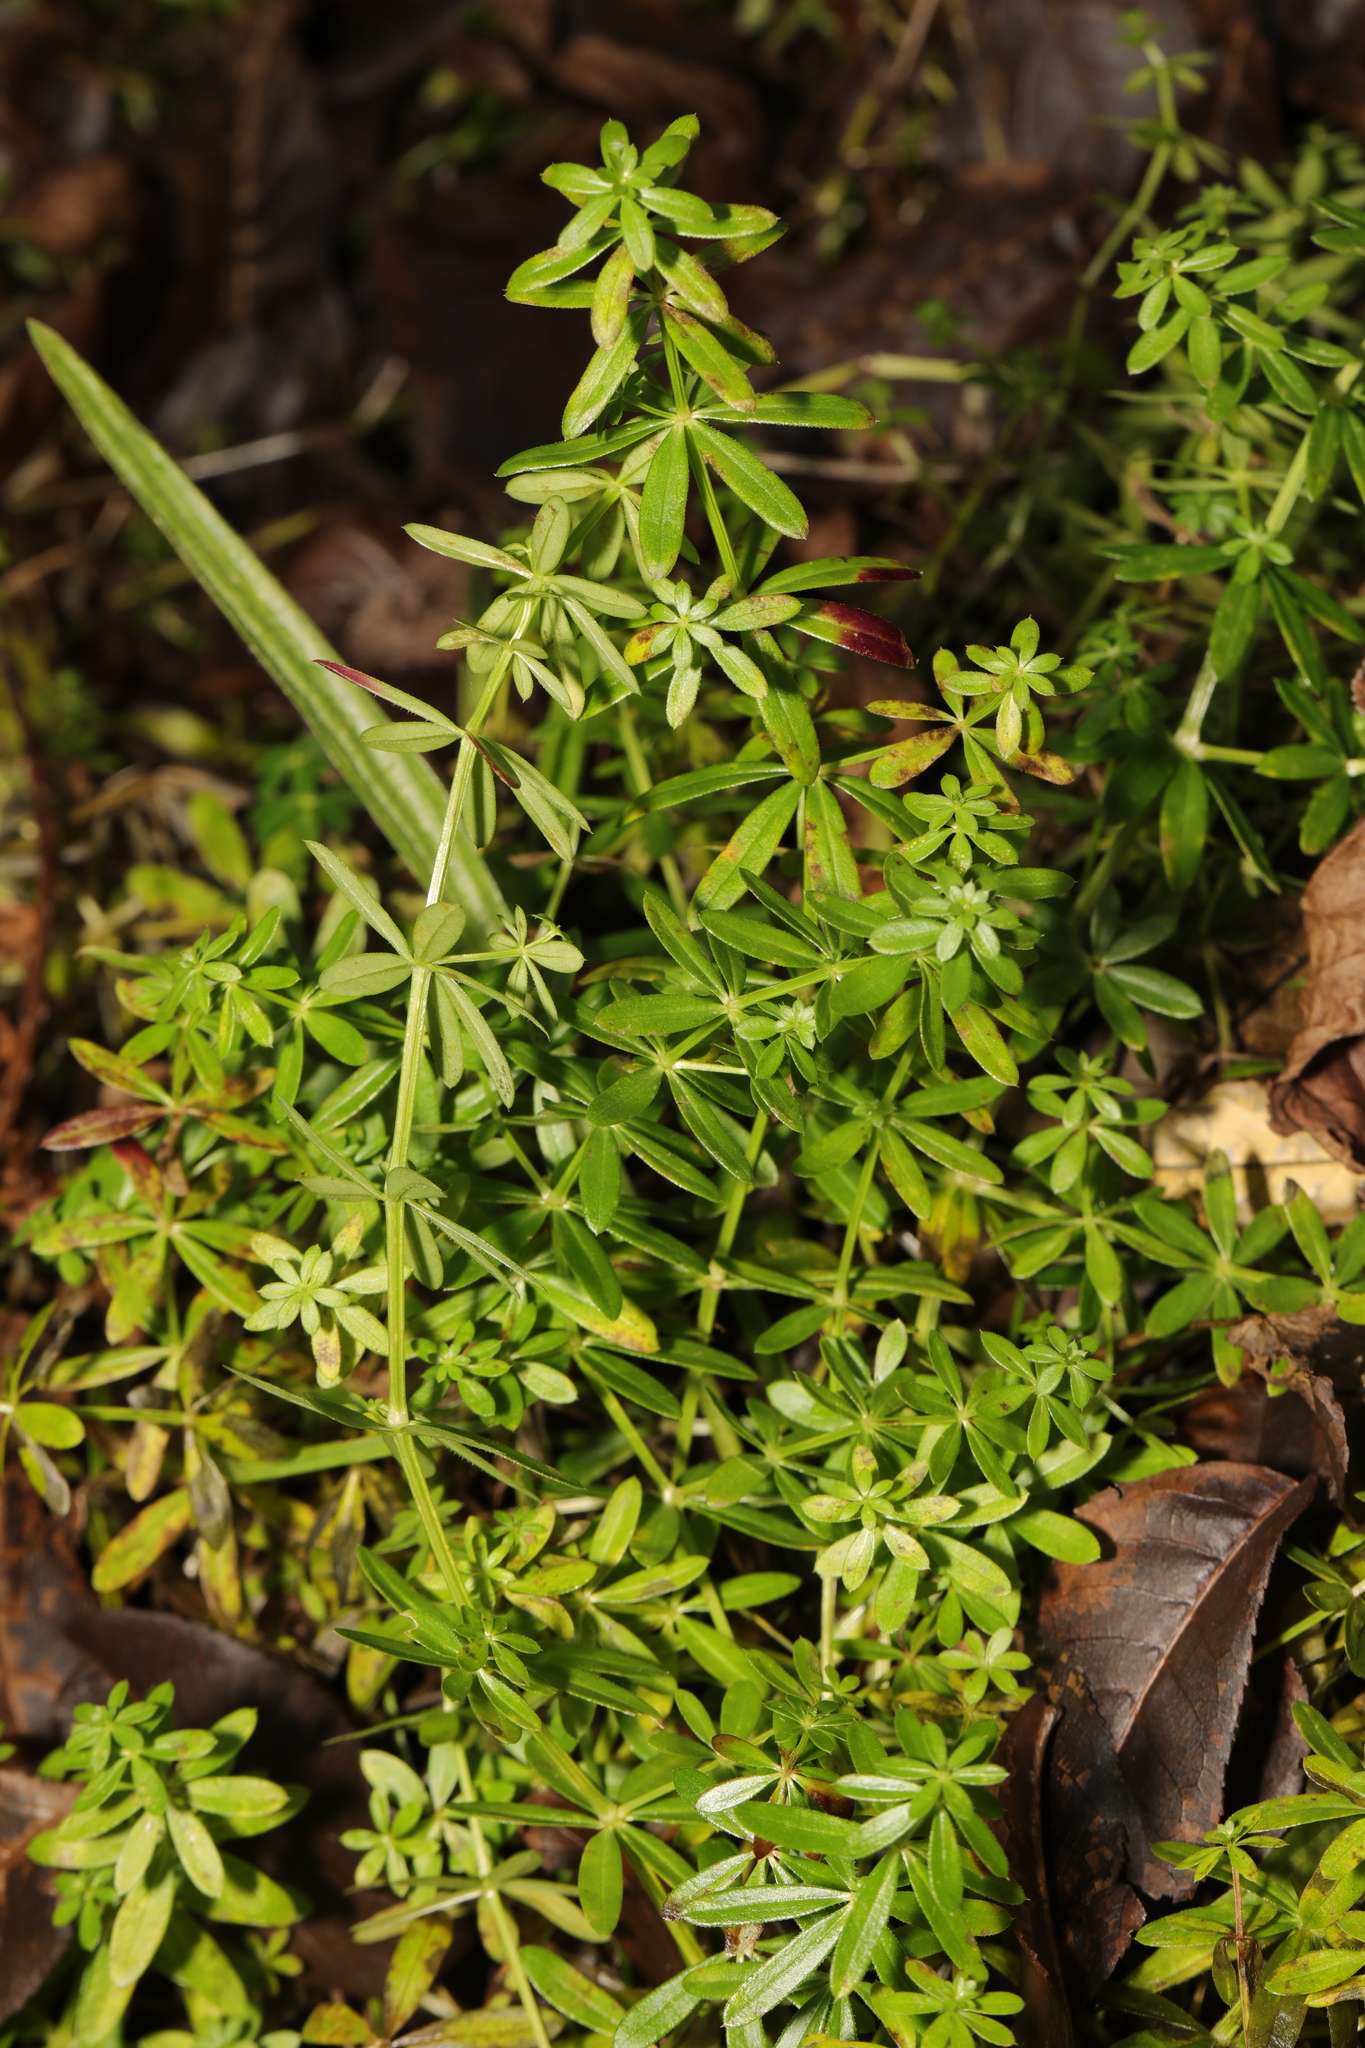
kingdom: Plantae
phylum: Tracheophyta
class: Magnoliopsida
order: Gentianales
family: Rubiaceae
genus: Galium
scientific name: Galium aparine
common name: Cleavers
